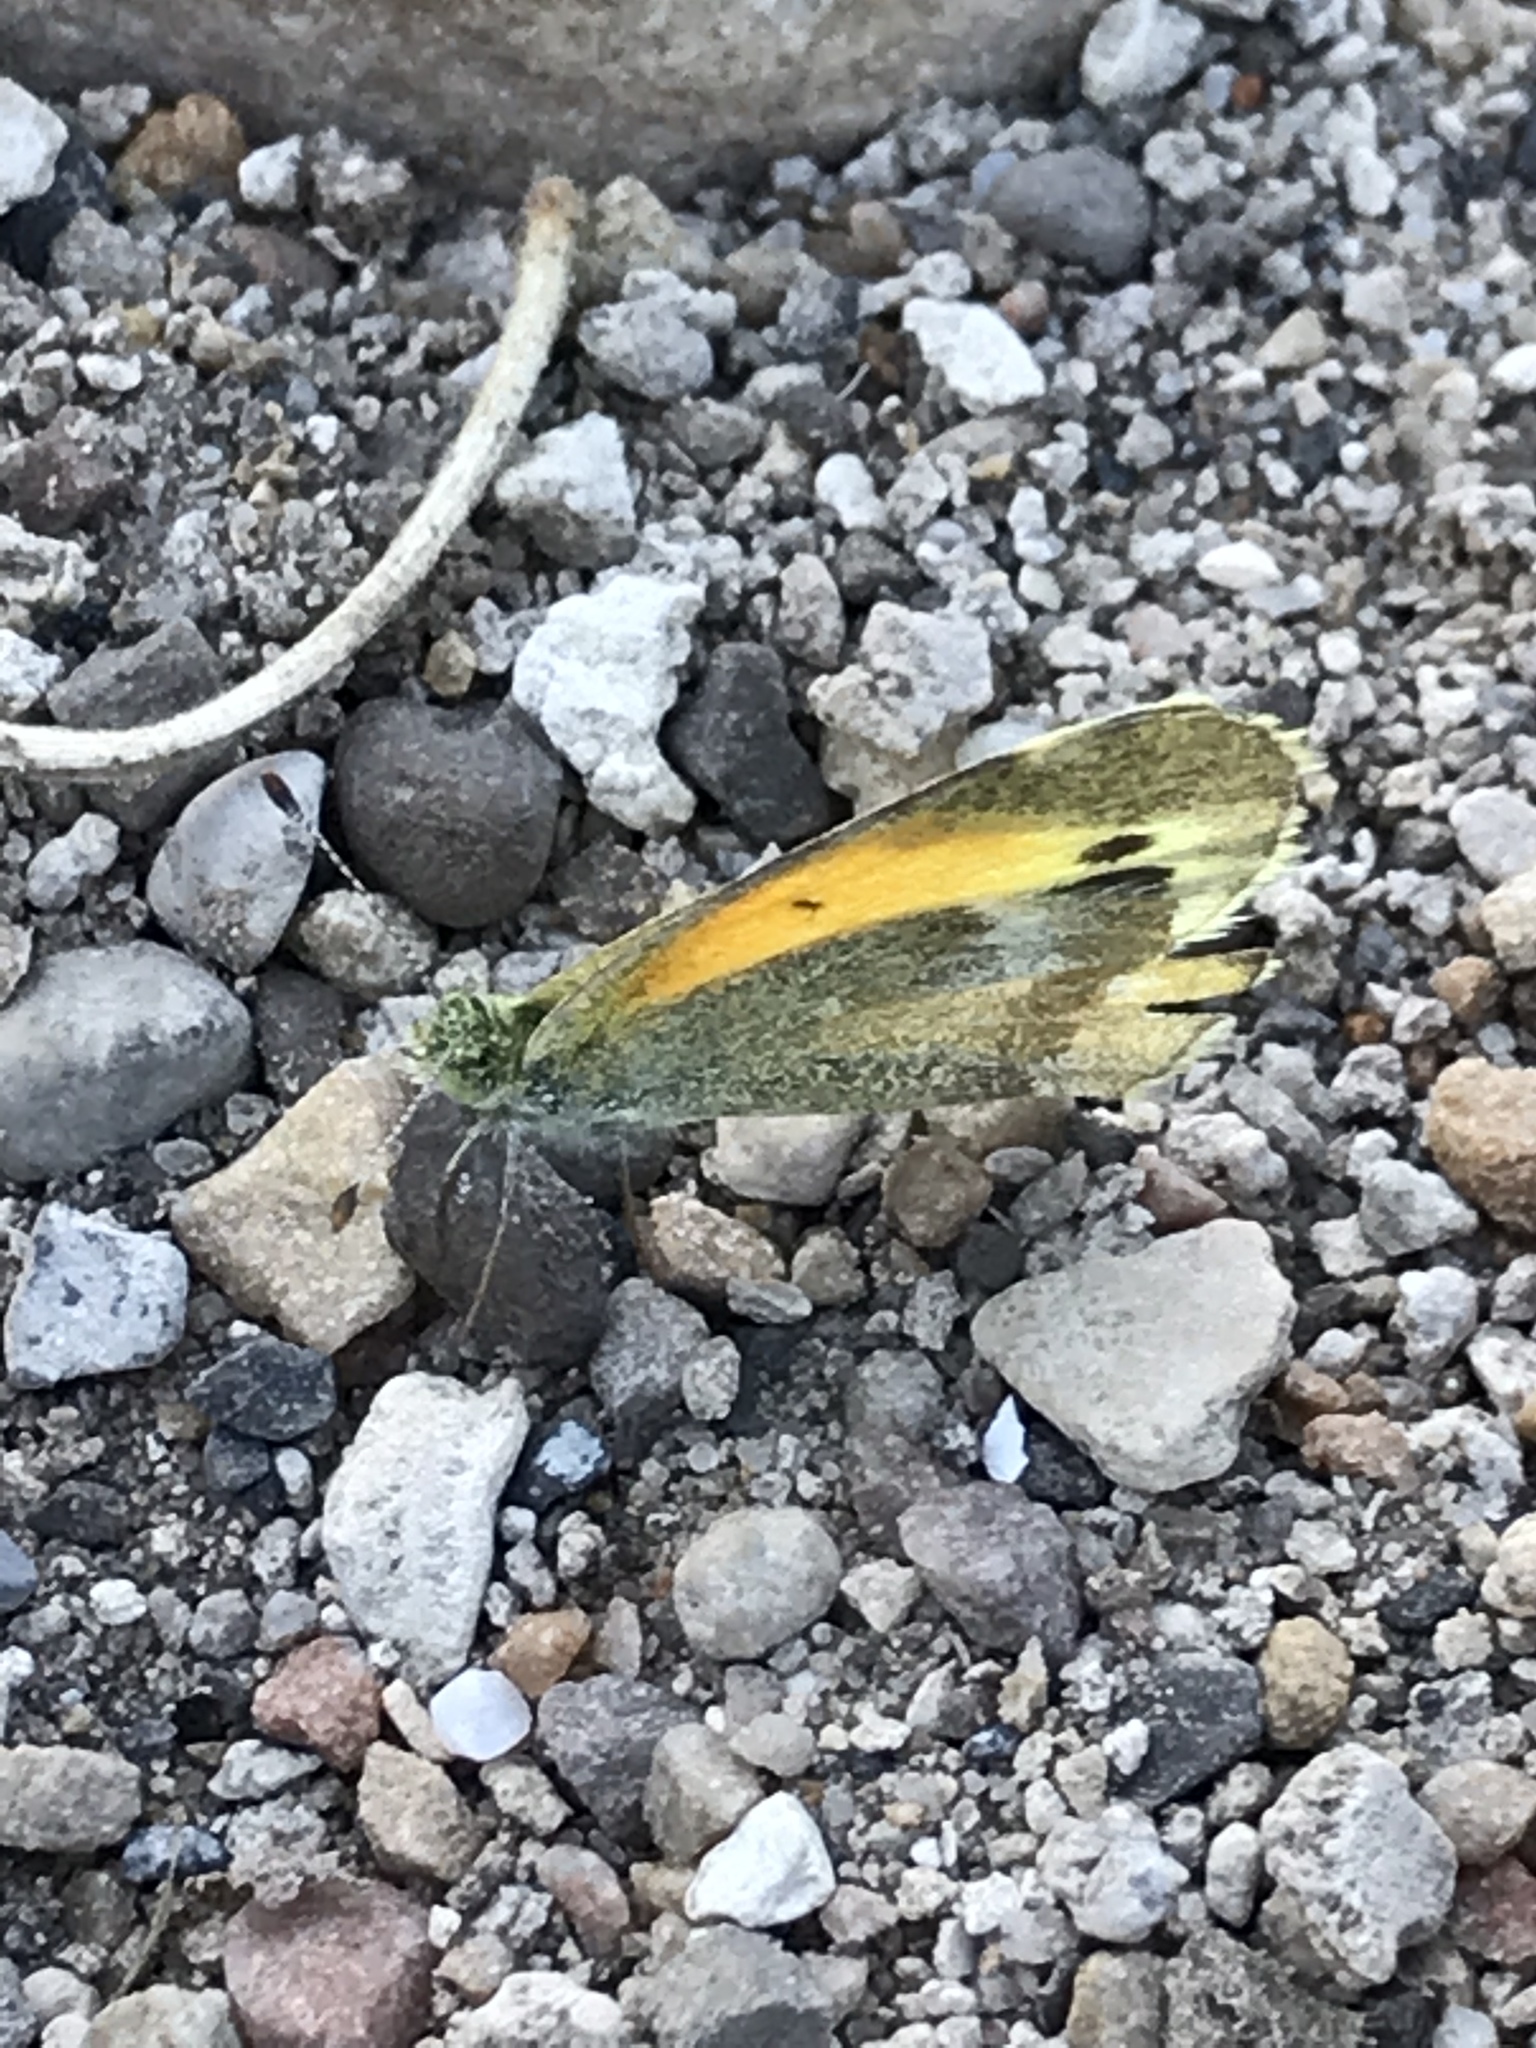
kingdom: Animalia
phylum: Arthropoda
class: Insecta
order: Lepidoptera
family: Pieridae
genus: Nathalis
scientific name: Nathalis iole
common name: Dainty sulphur
